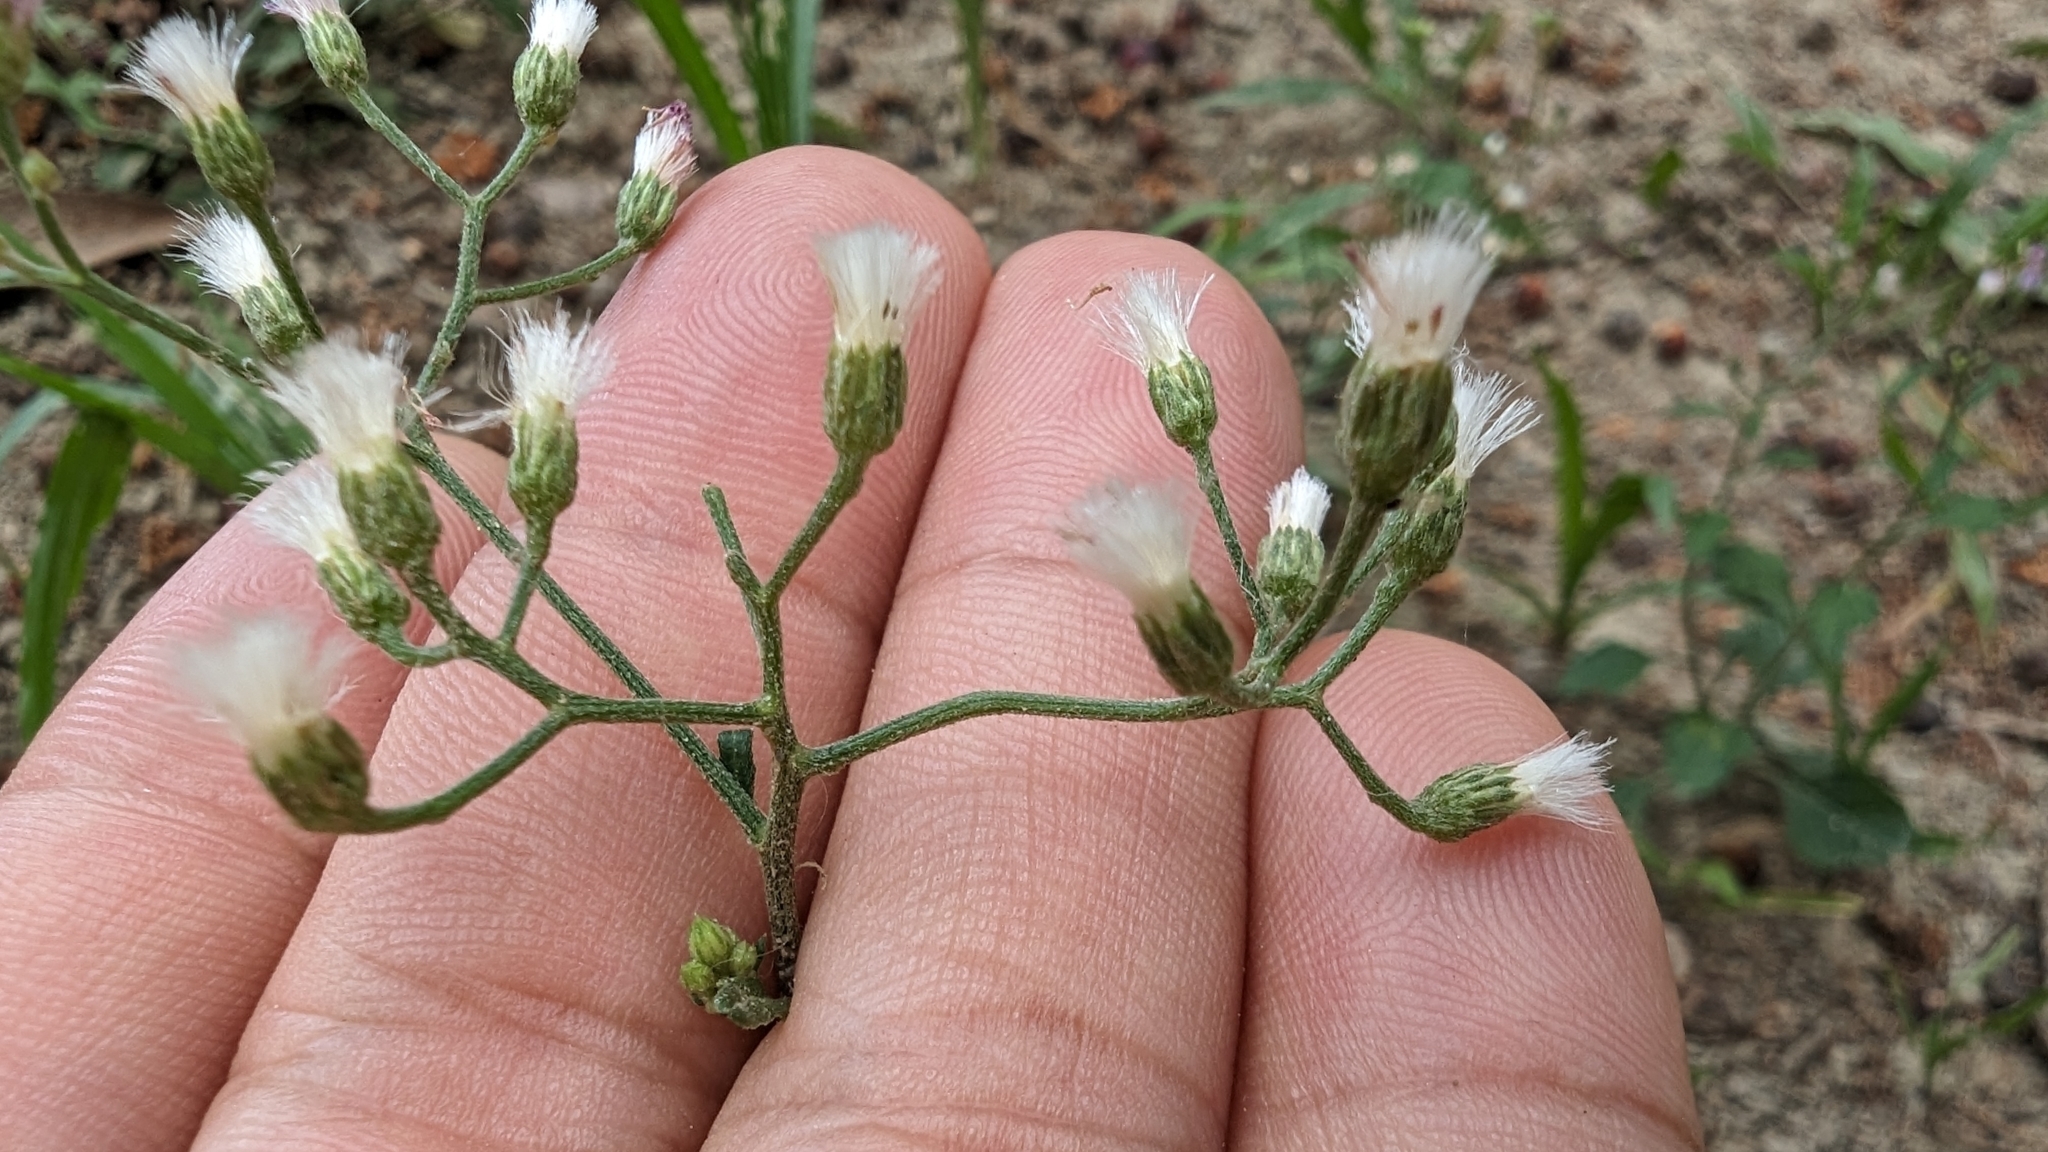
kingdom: Plantae
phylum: Tracheophyta
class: Magnoliopsida
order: Asterales
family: Asteraceae
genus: Cyanthillium
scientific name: Cyanthillium cinereum
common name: Little ironweed
